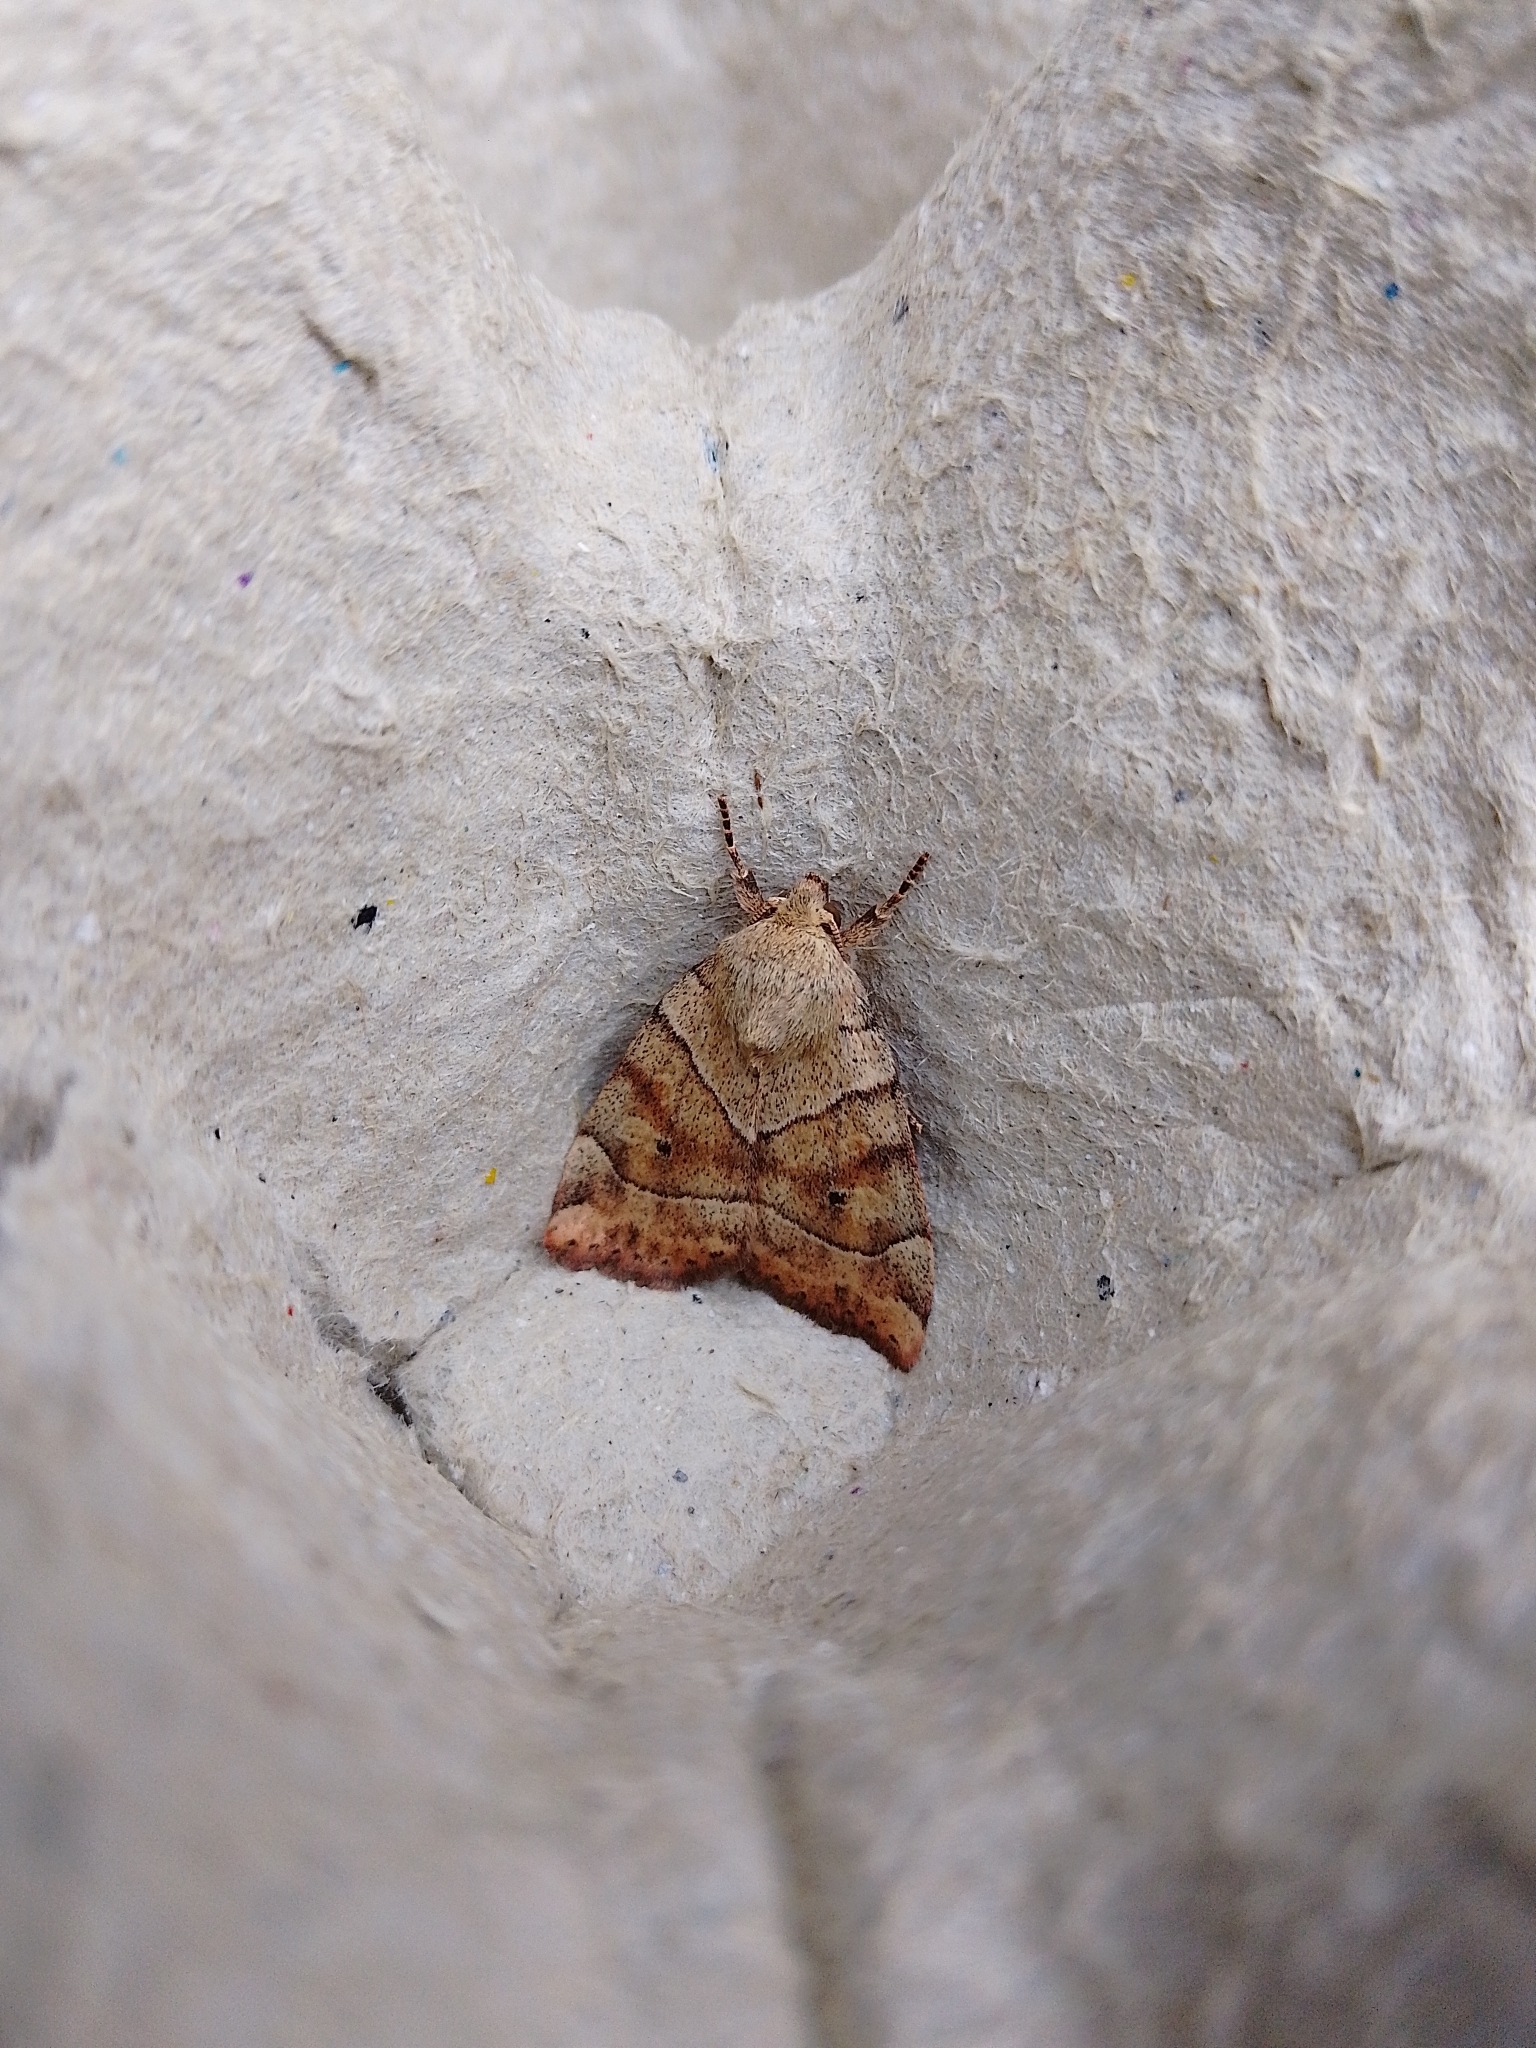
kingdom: Animalia
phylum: Arthropoda
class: Insecta
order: Lepidoptera
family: Noctuidae
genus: Cosmia
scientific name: Cosmia trapezina
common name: Dun-bar
